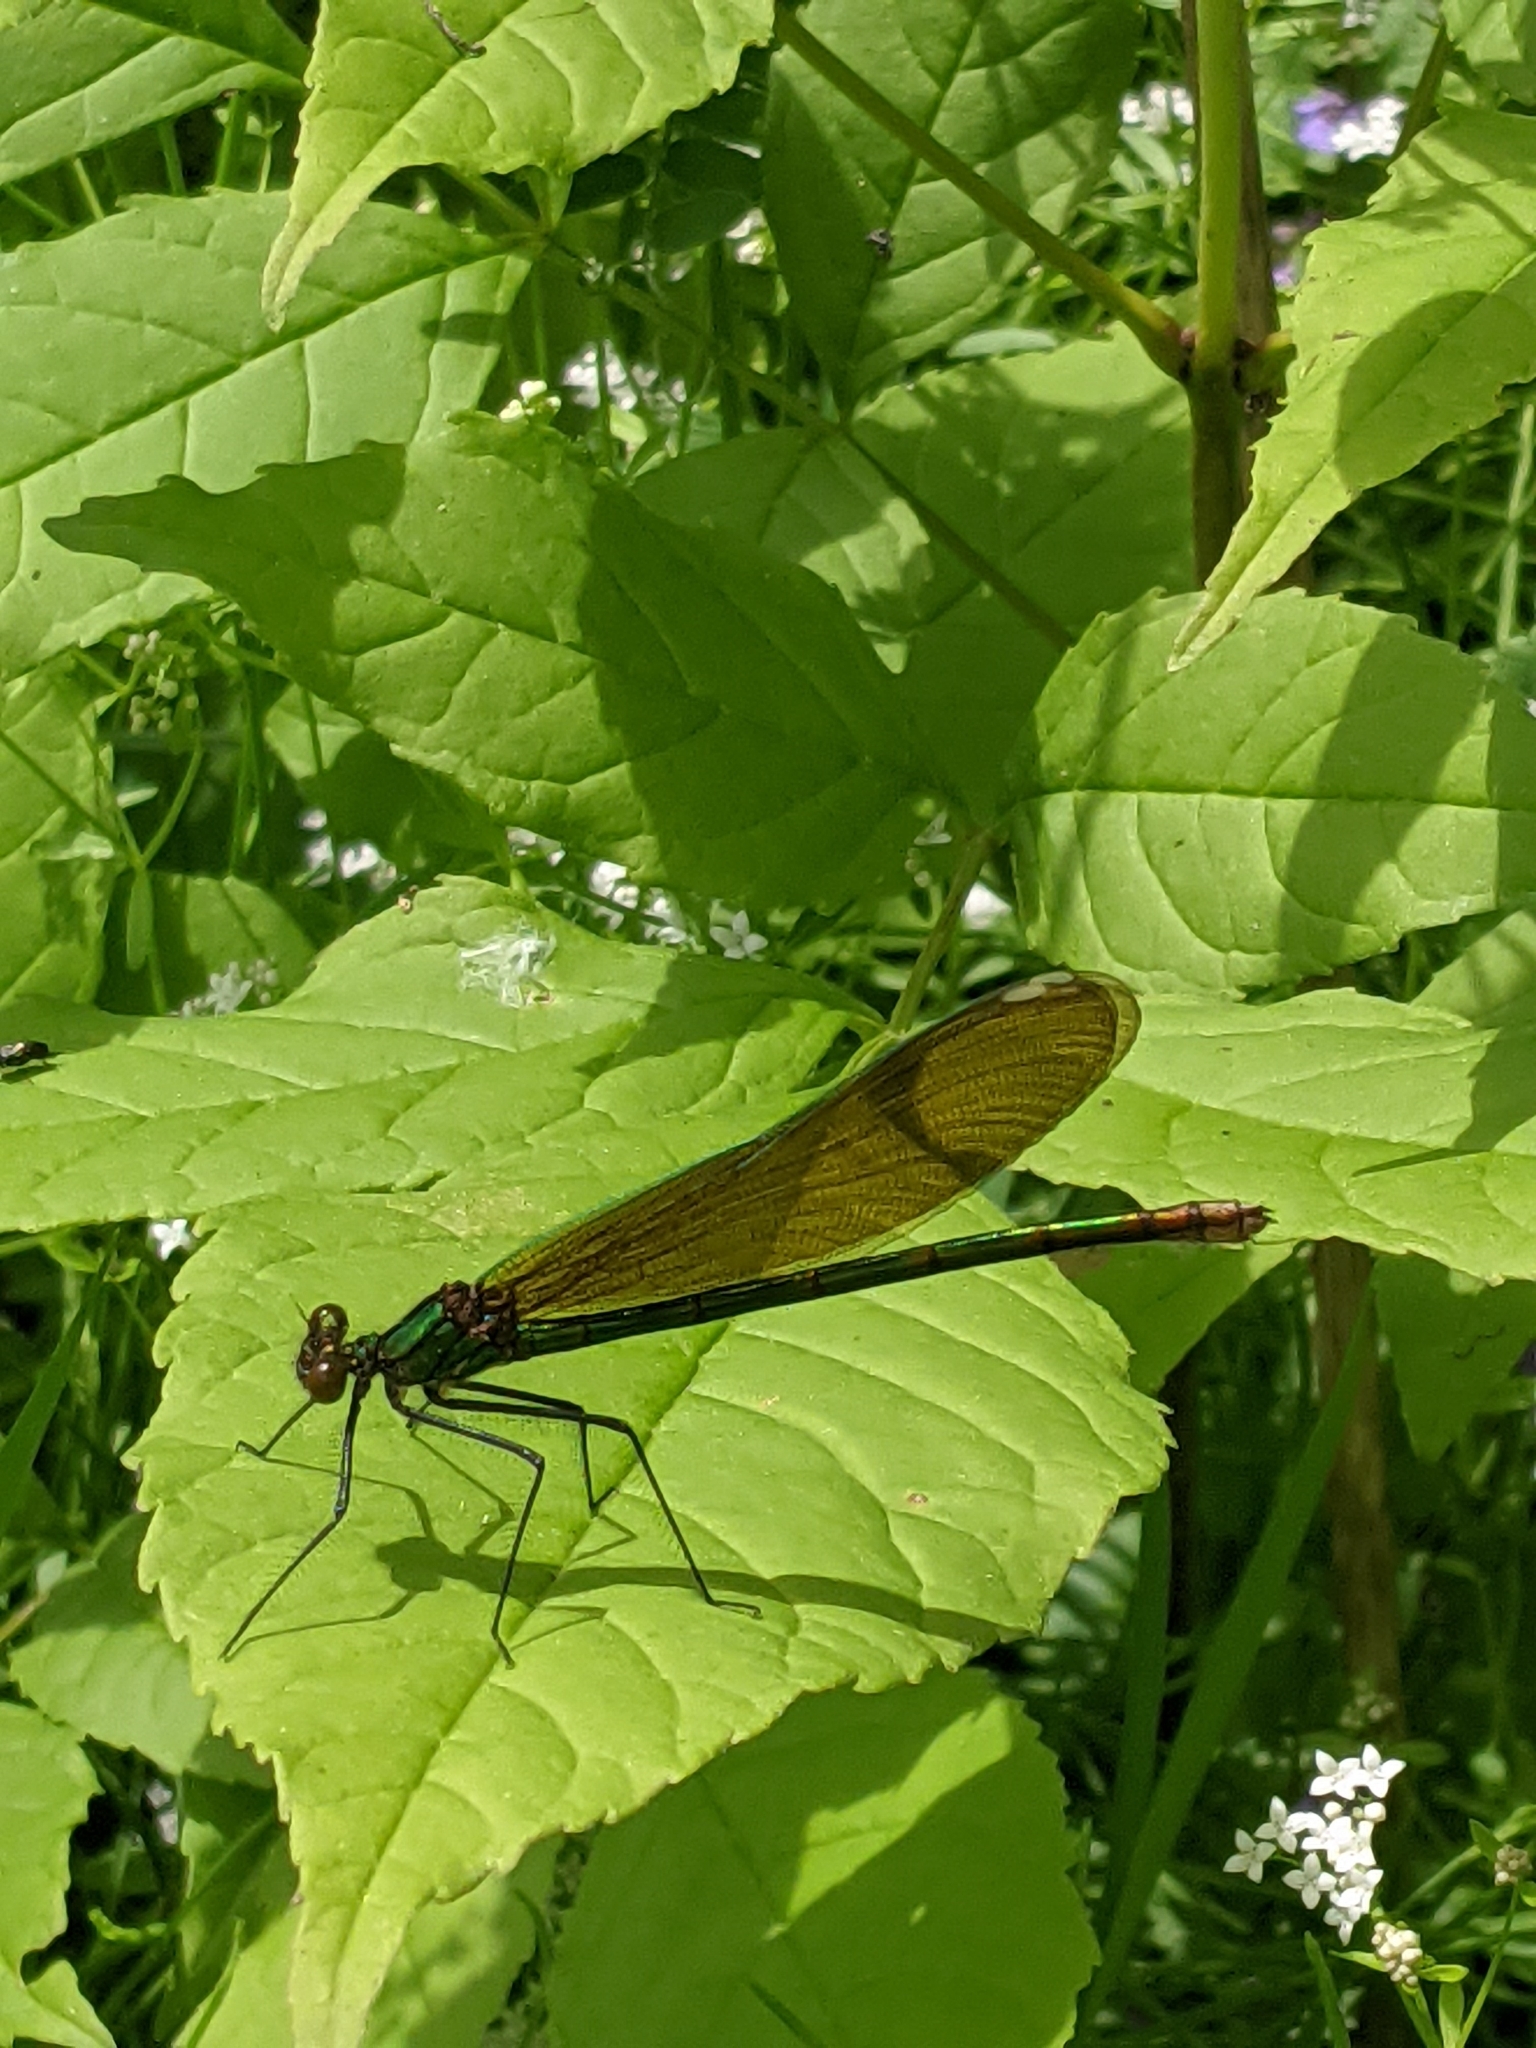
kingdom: Animalia
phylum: Arthropoda
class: Insecta
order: Odonata
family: Calopterygidae
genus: Calopteryx
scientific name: Calopteryx aequabilis
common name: River jewelwing
